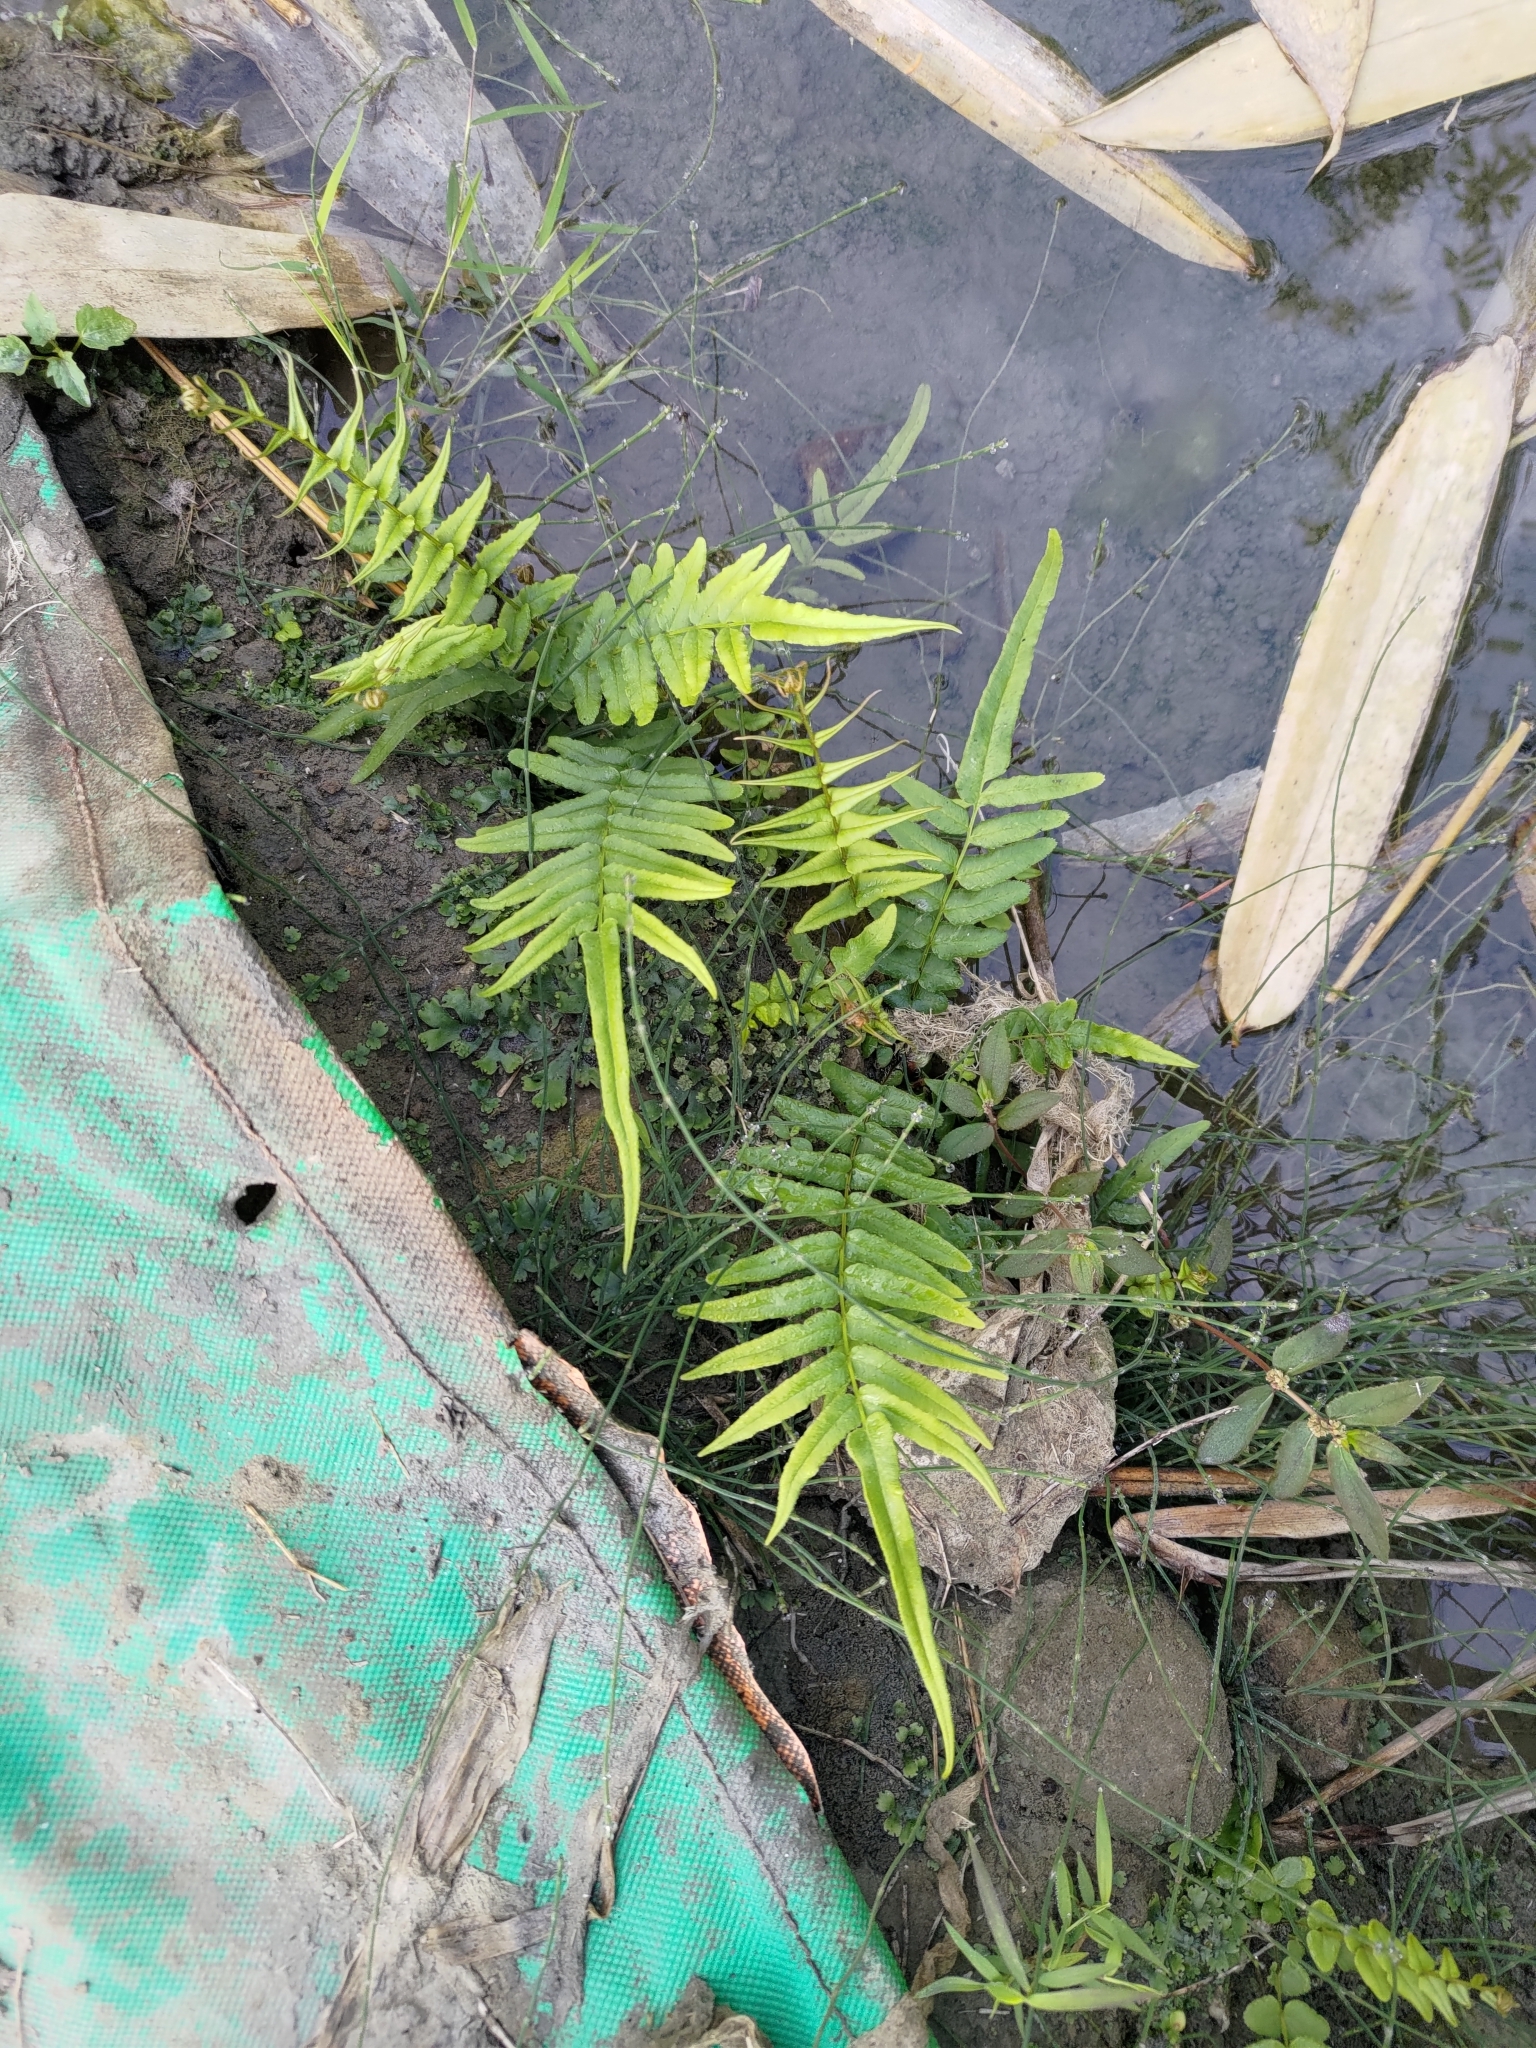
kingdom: Plantae
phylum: Tracheophyta
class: Polypodiopsida
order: Polypodiales
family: Pteridaceae
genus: Pteris
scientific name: Pteris vittata
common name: Ladder brake
